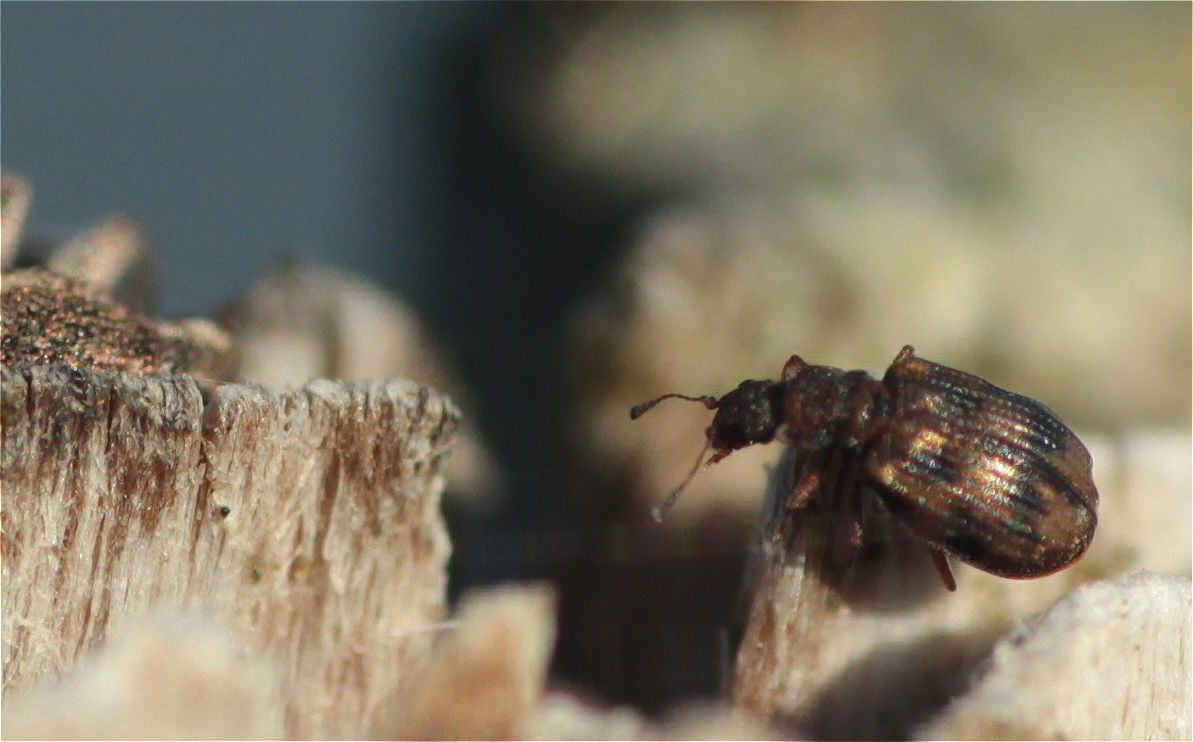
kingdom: Animalia
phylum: Arthropoda
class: Insecta
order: Coleoptera
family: Latridiidae
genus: Cartodere
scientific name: Cartodere bifasciata
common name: Plaster beetle
